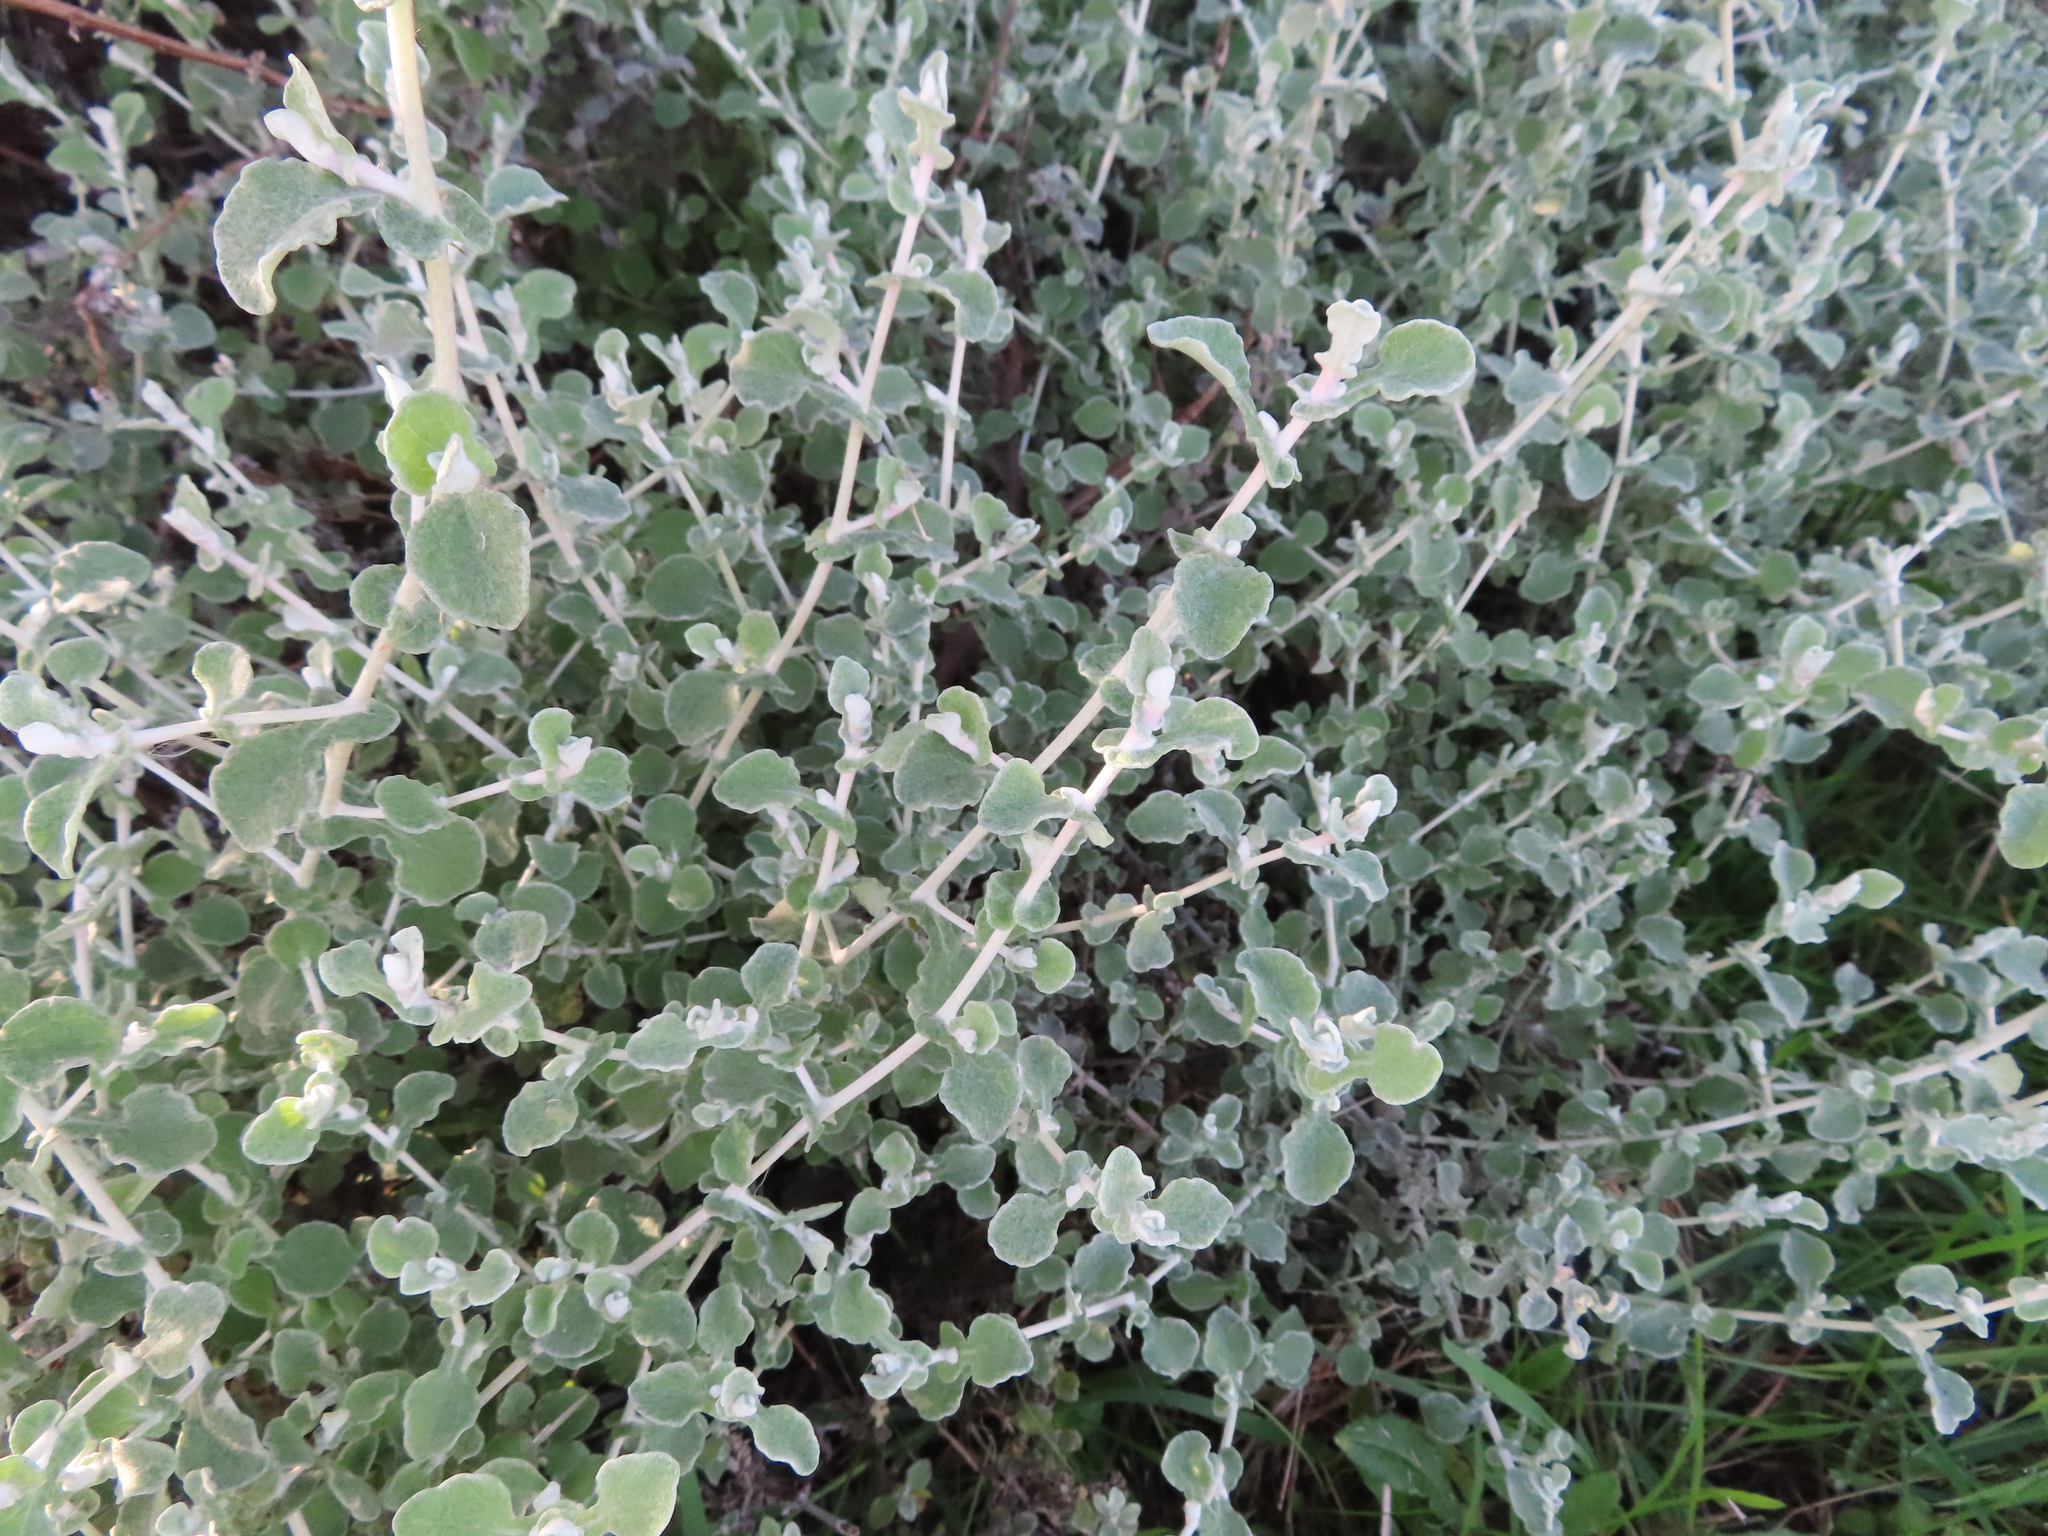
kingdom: Plantae
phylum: Tracheophyta
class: Magnoliopsida
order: Asterales
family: Asteraceae
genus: Helichrysum
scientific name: Helichrysum patulum
